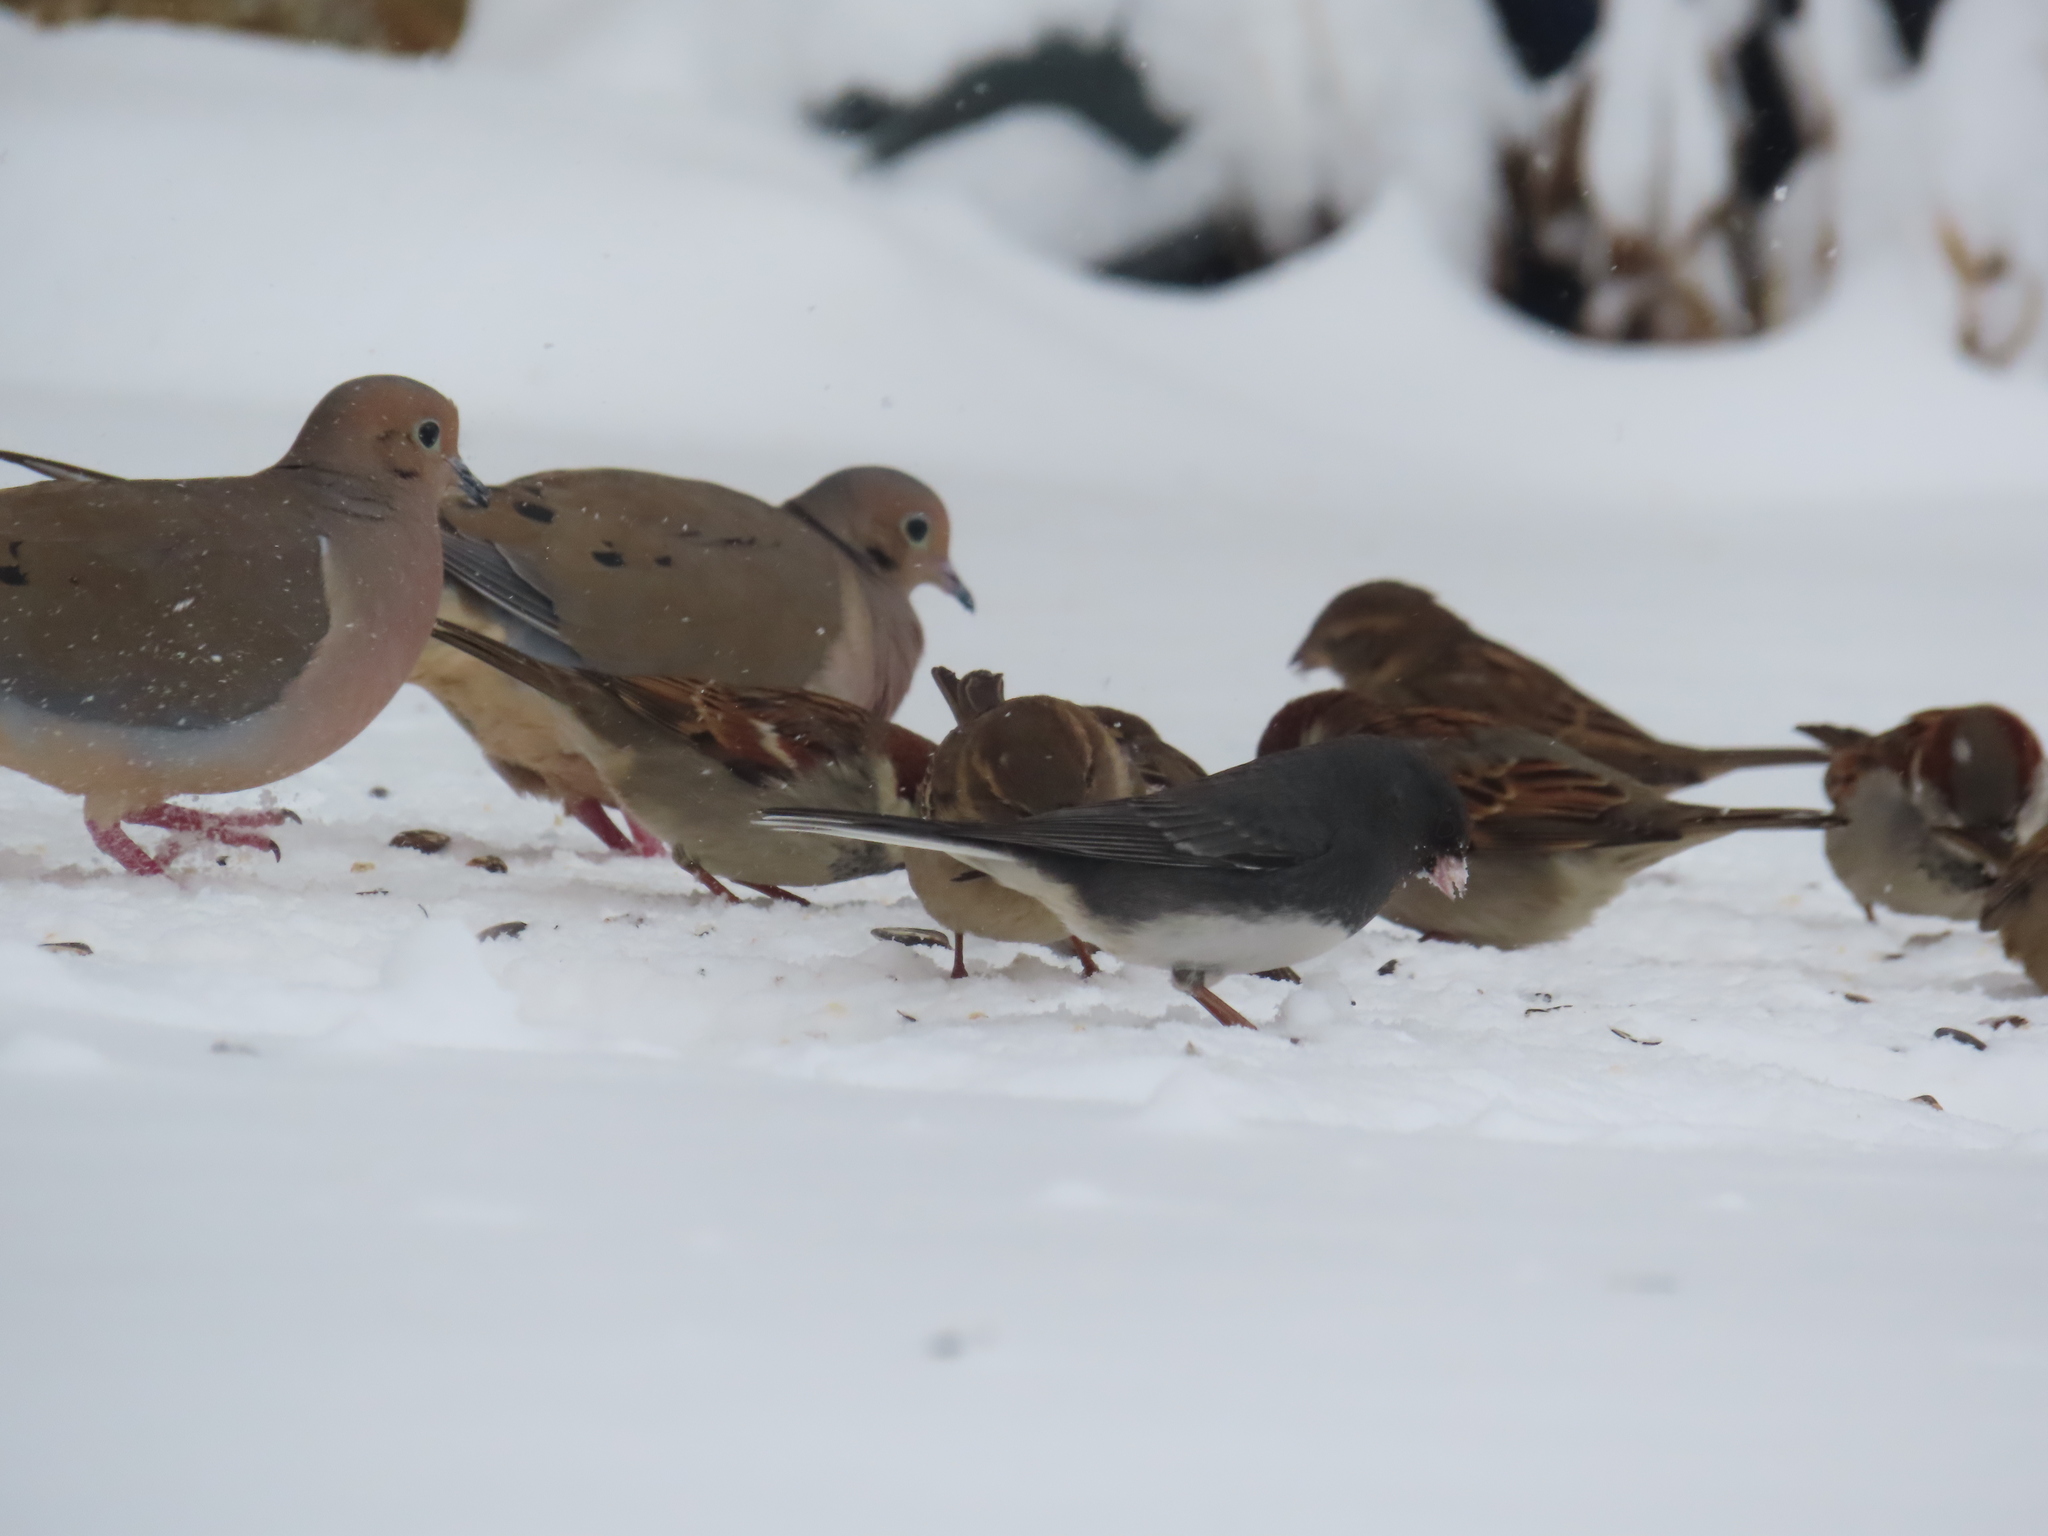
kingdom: Animalia
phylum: Chordata
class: Aves
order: Columbiformes
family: Columbidae
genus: Zenaida
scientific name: Zenaida macroura
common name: Mourning dove
